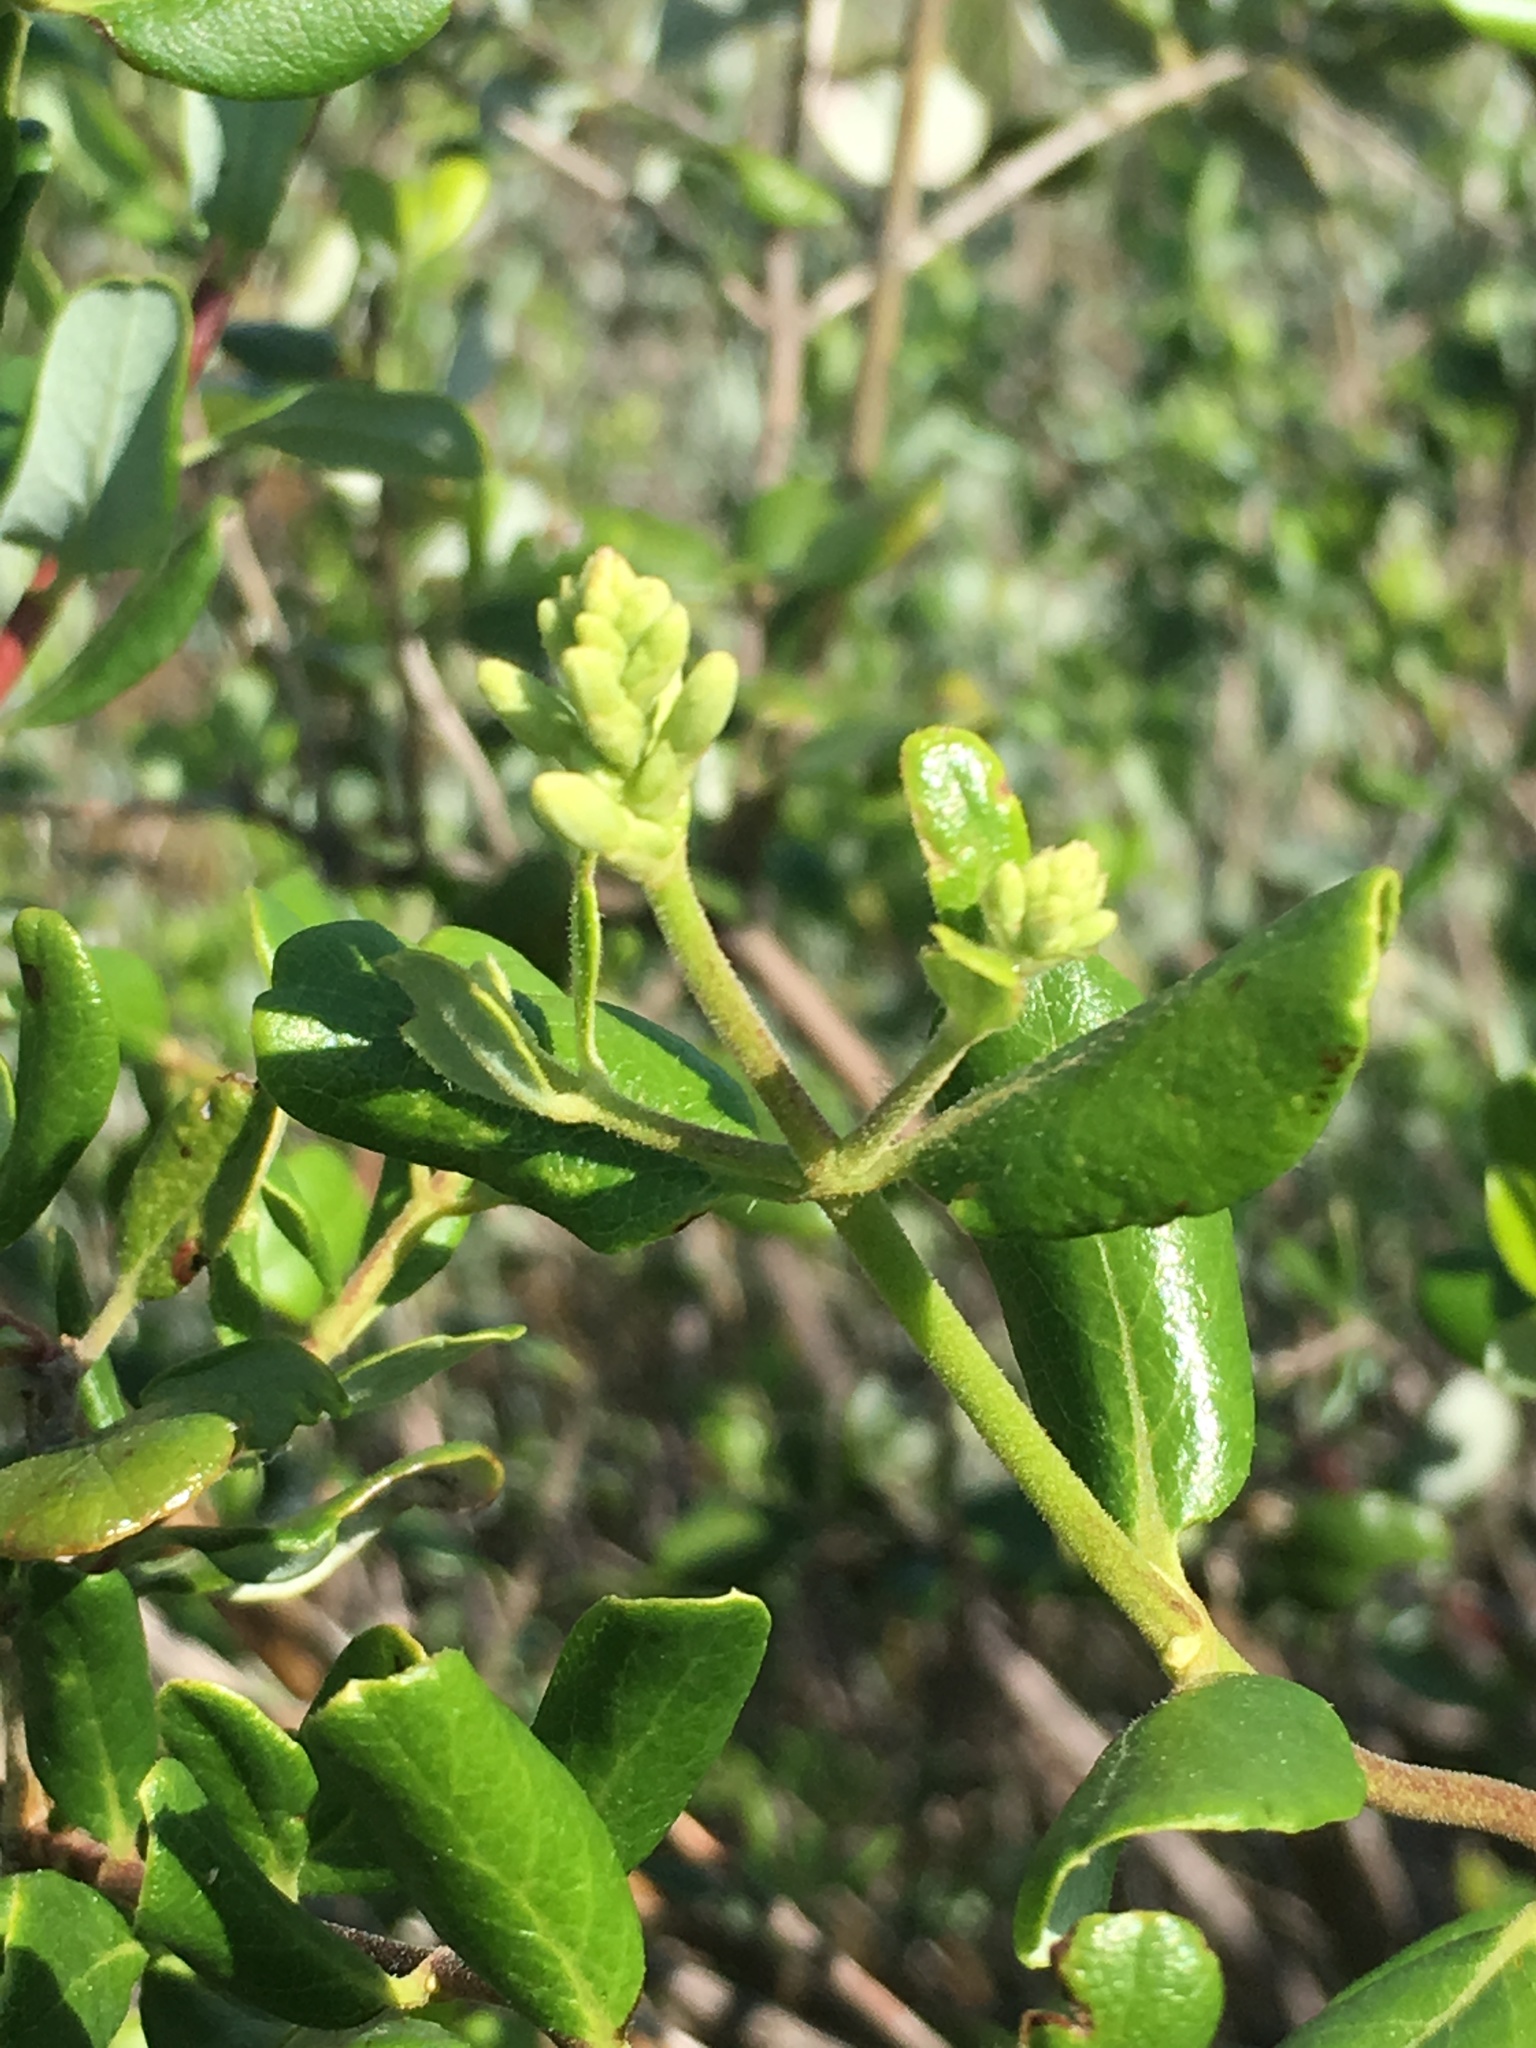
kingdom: Plantae
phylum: Tracheophyta
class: Magnoliopsida
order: Dipsacales
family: Caprifoliaceae
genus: Lonicera
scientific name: Lonicera subspicata
